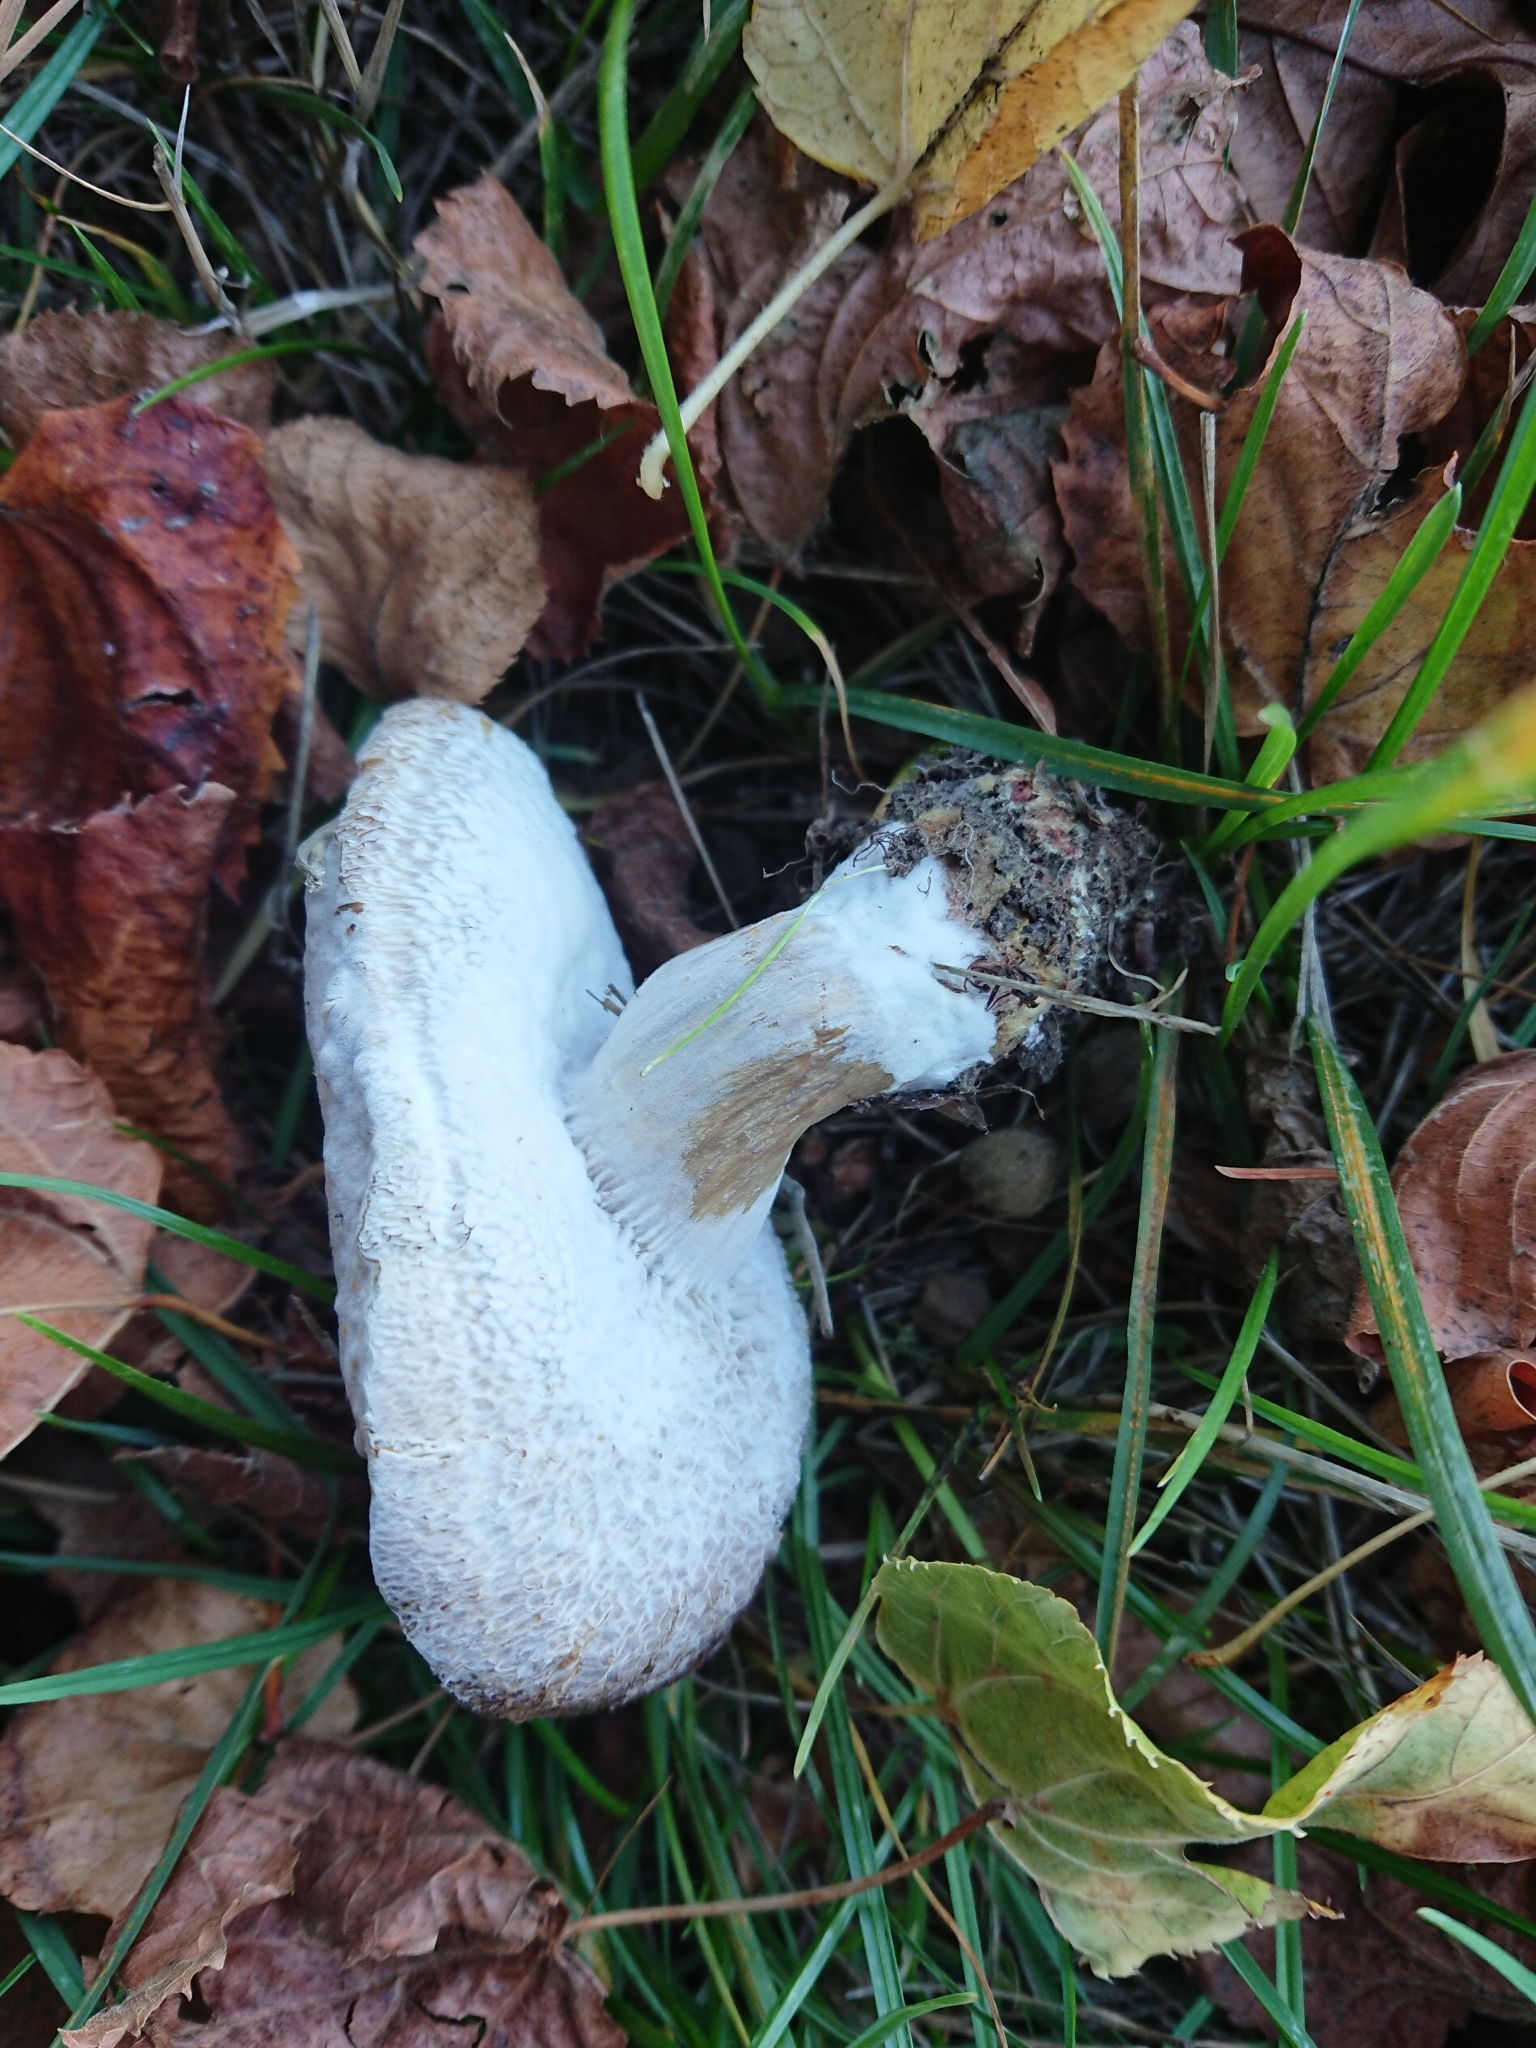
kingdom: Fungi
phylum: Ascomycota
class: Sordariomycetes
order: Hypocreales
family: Hypocreaceae
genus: Hypomyces
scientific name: Hypomyces chrysospermus
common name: Bolete mould
